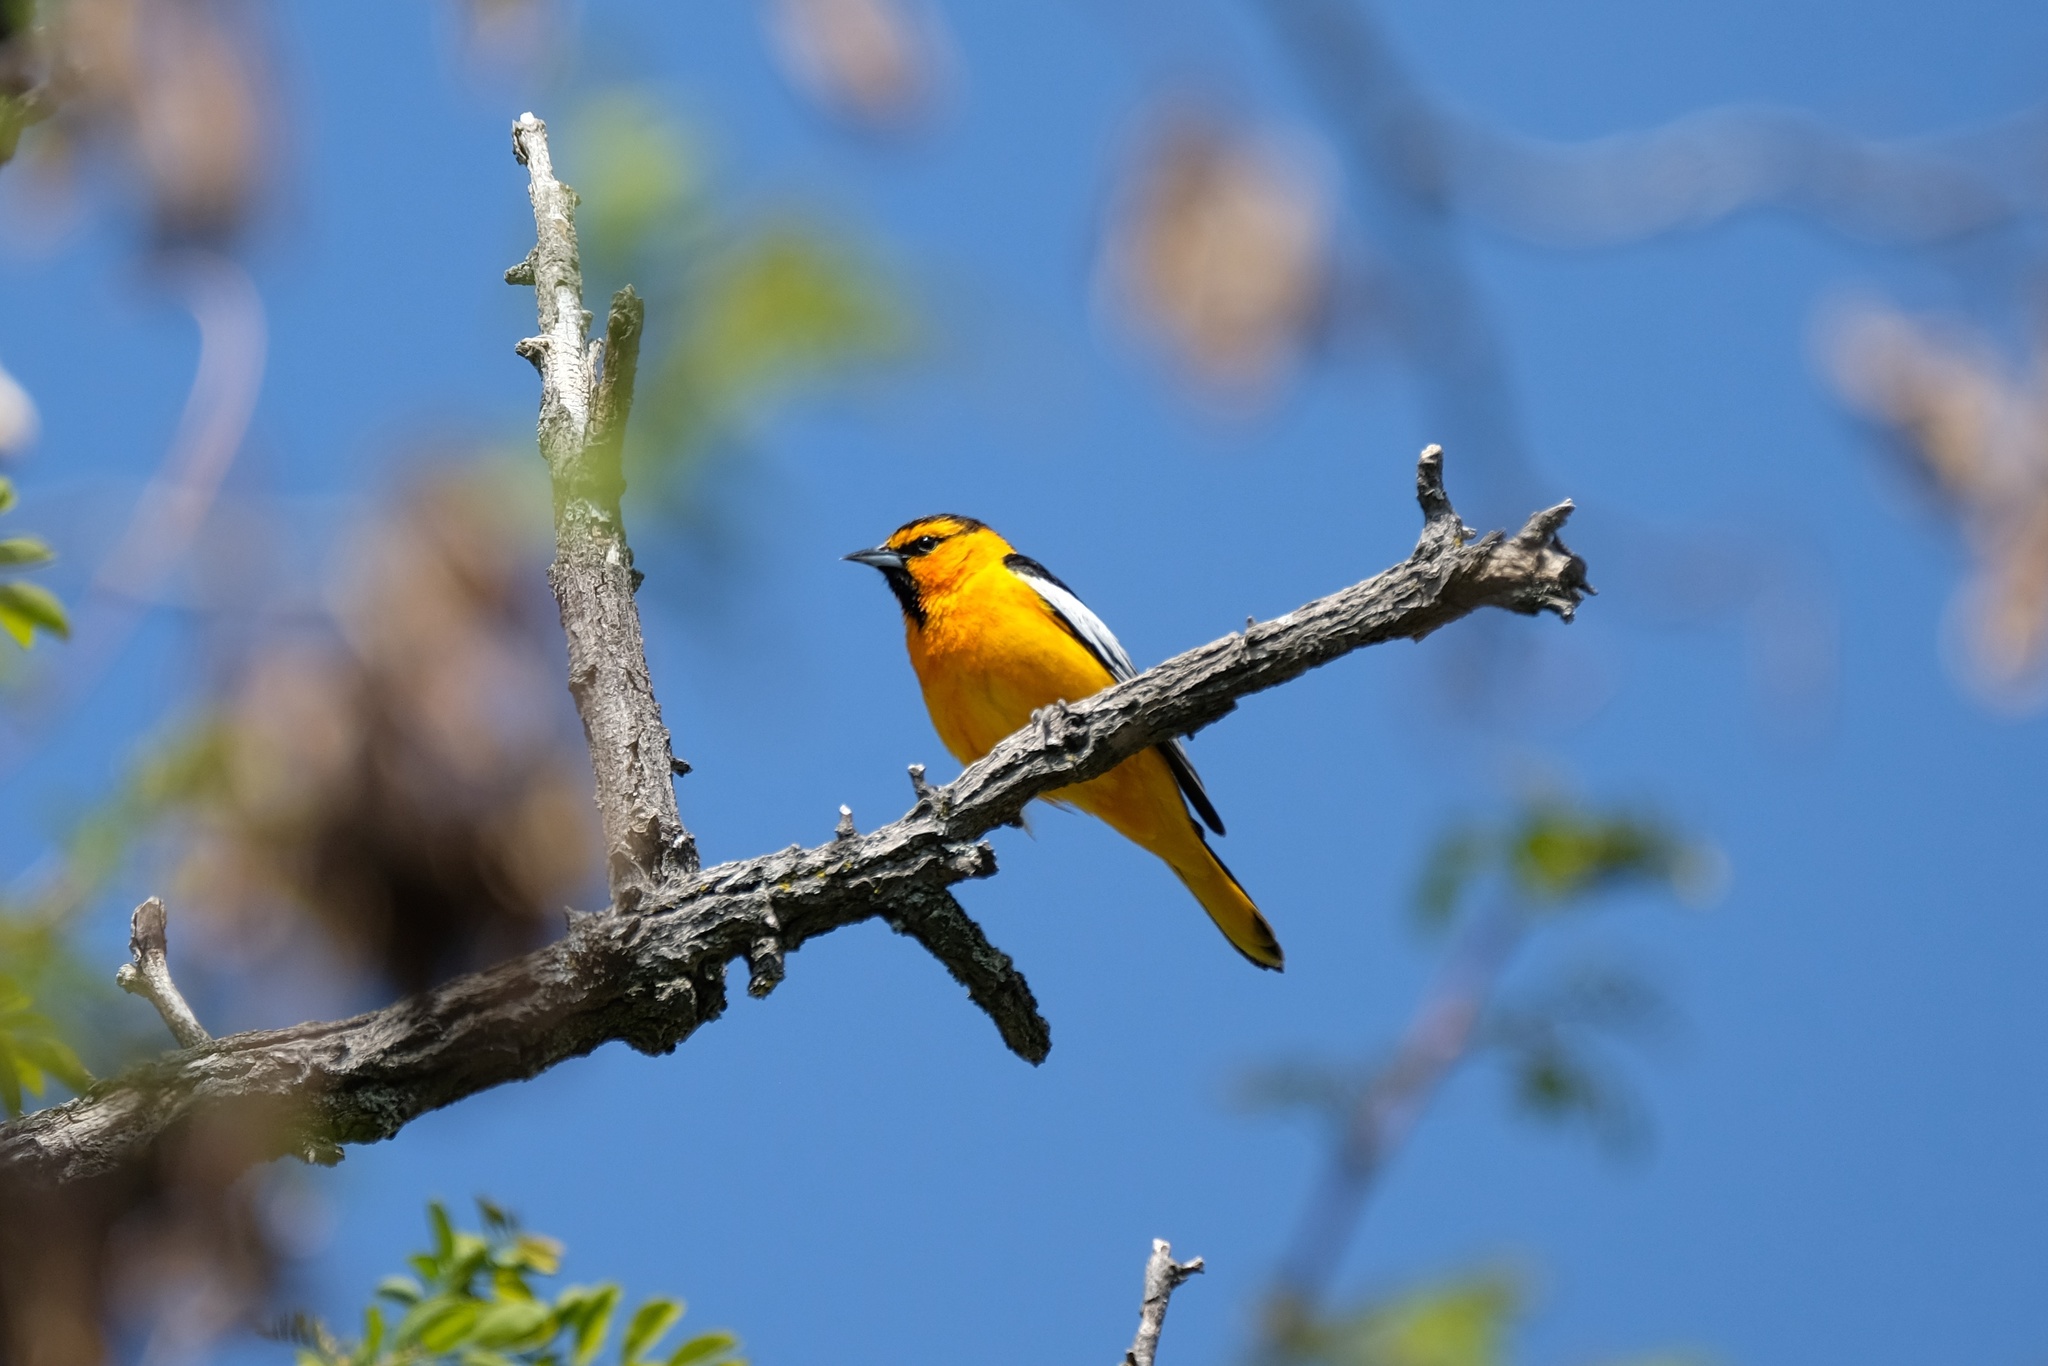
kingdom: Animalia
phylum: Chordata
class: Aves
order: Passeriformes
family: Icteridae
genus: Icterus
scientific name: Icterus bullockii
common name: Bullock's oriole
